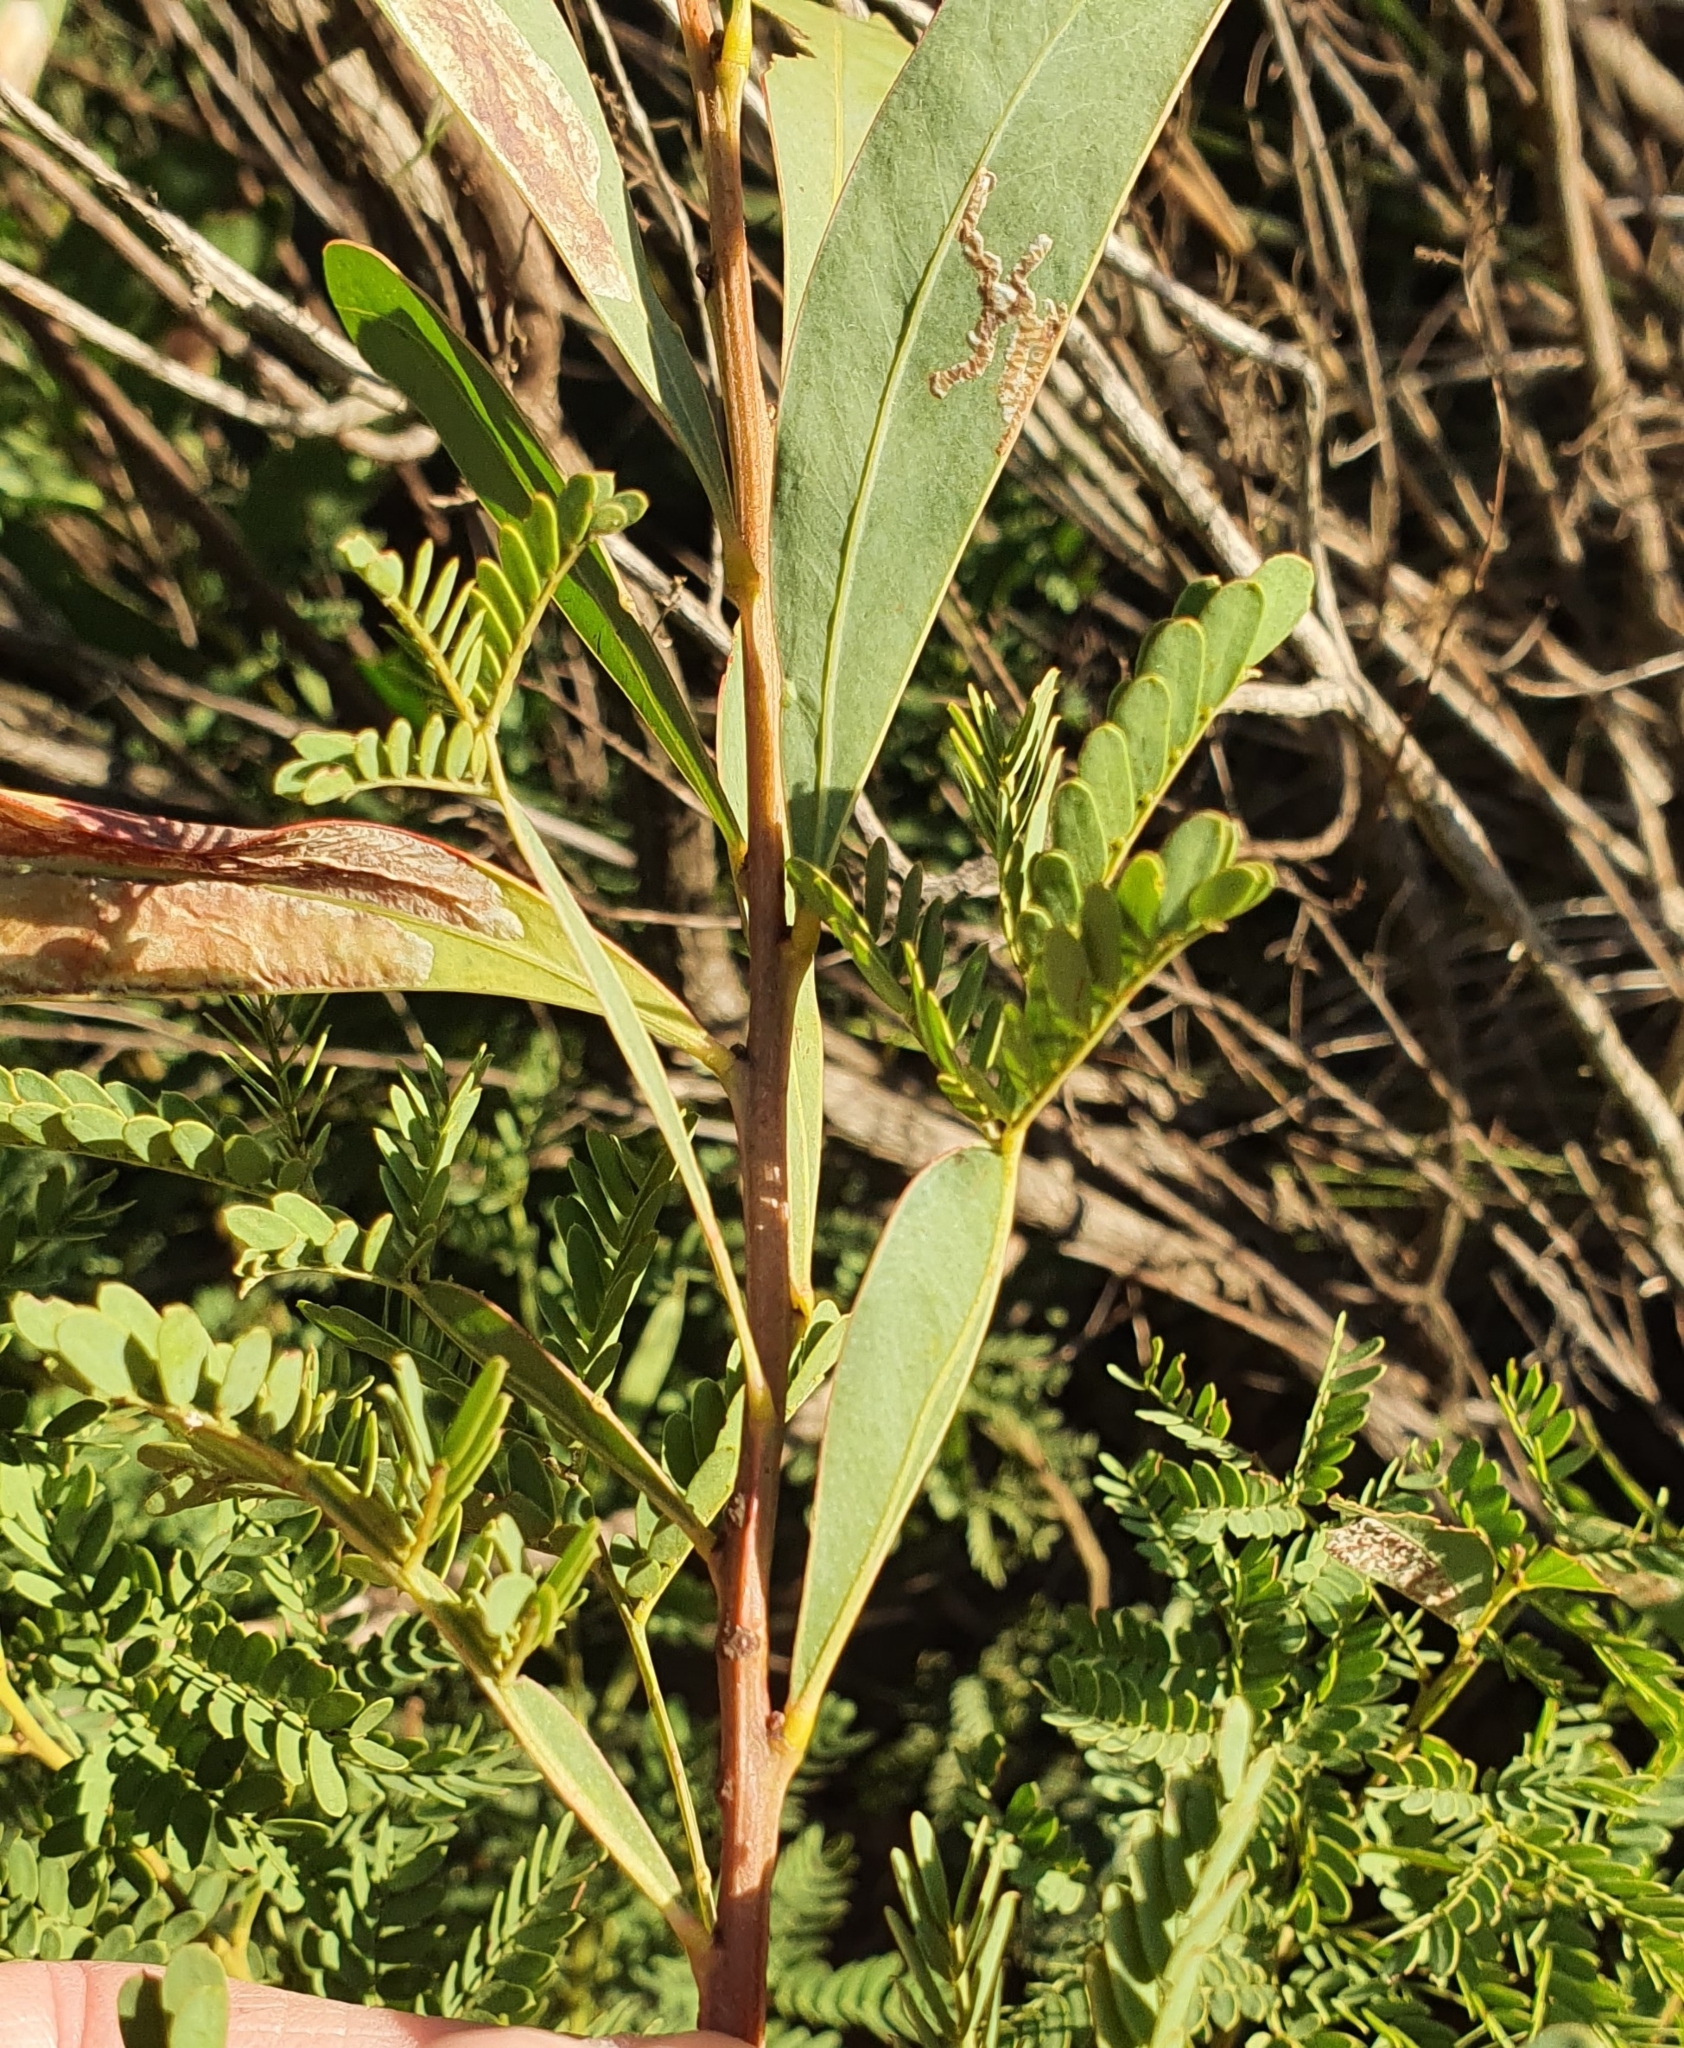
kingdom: Plantae
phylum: Tracheophyta
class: Magnoliopsida
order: Fabales
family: Fabaceae
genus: Acacia
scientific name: Acacia rubida
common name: Red leaf wattle
